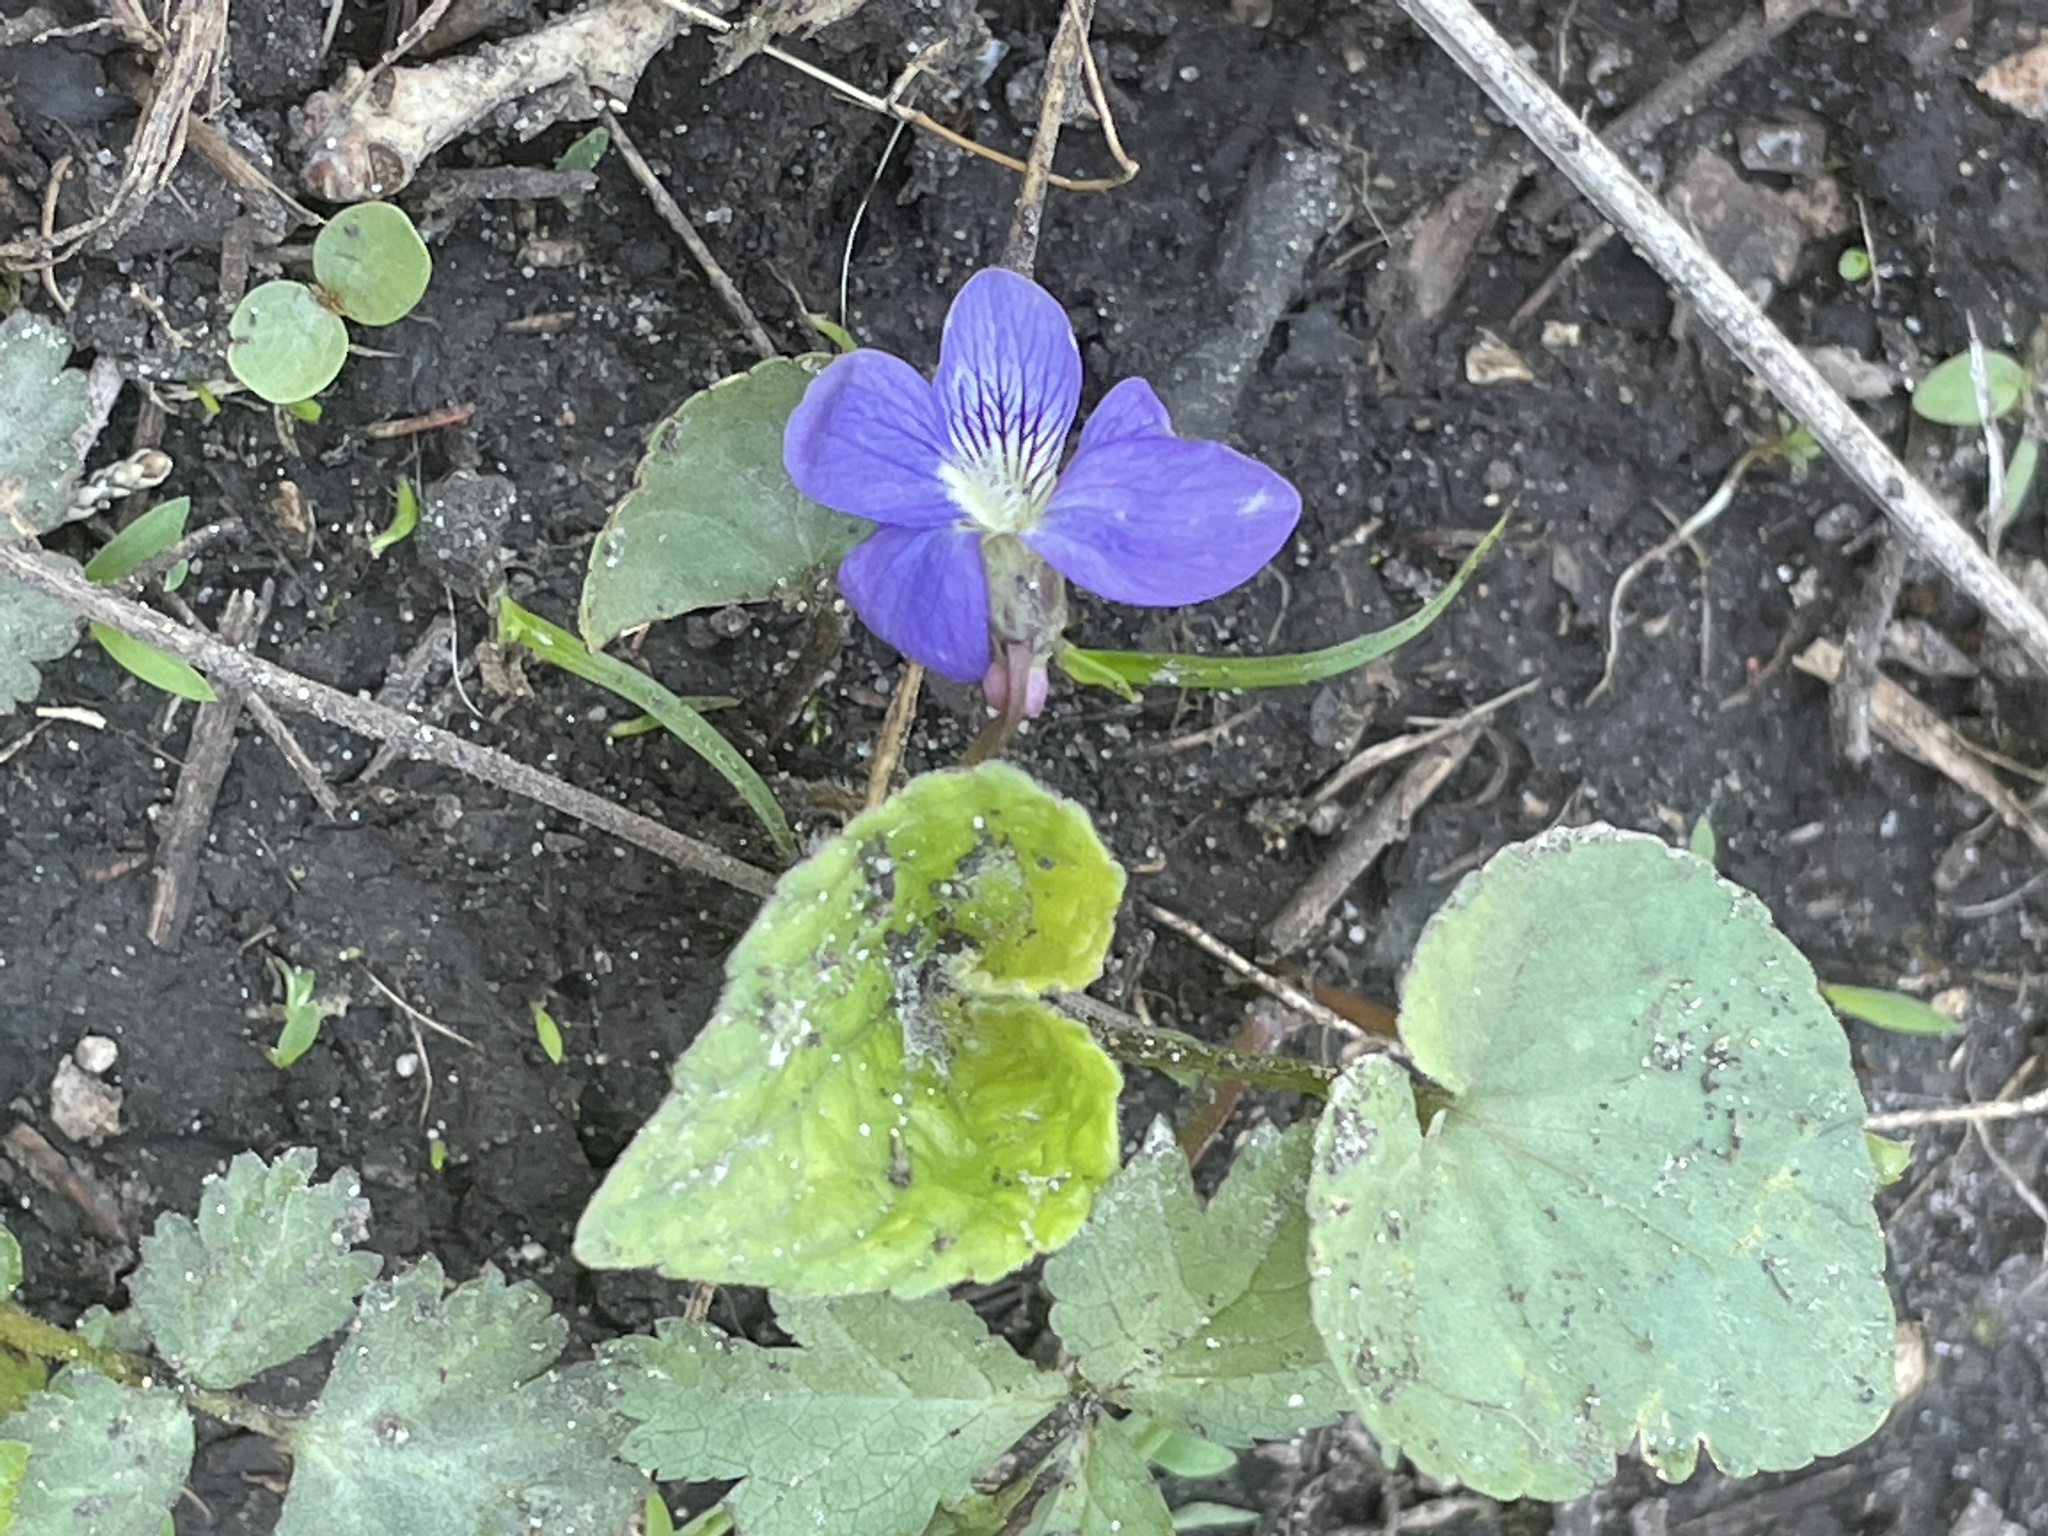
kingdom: Plantae
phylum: Tracheophyta
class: Magnoliopsida
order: Malpighiales
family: Violaceae
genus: Viola
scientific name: Viola sororia
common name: Dooryard violet
